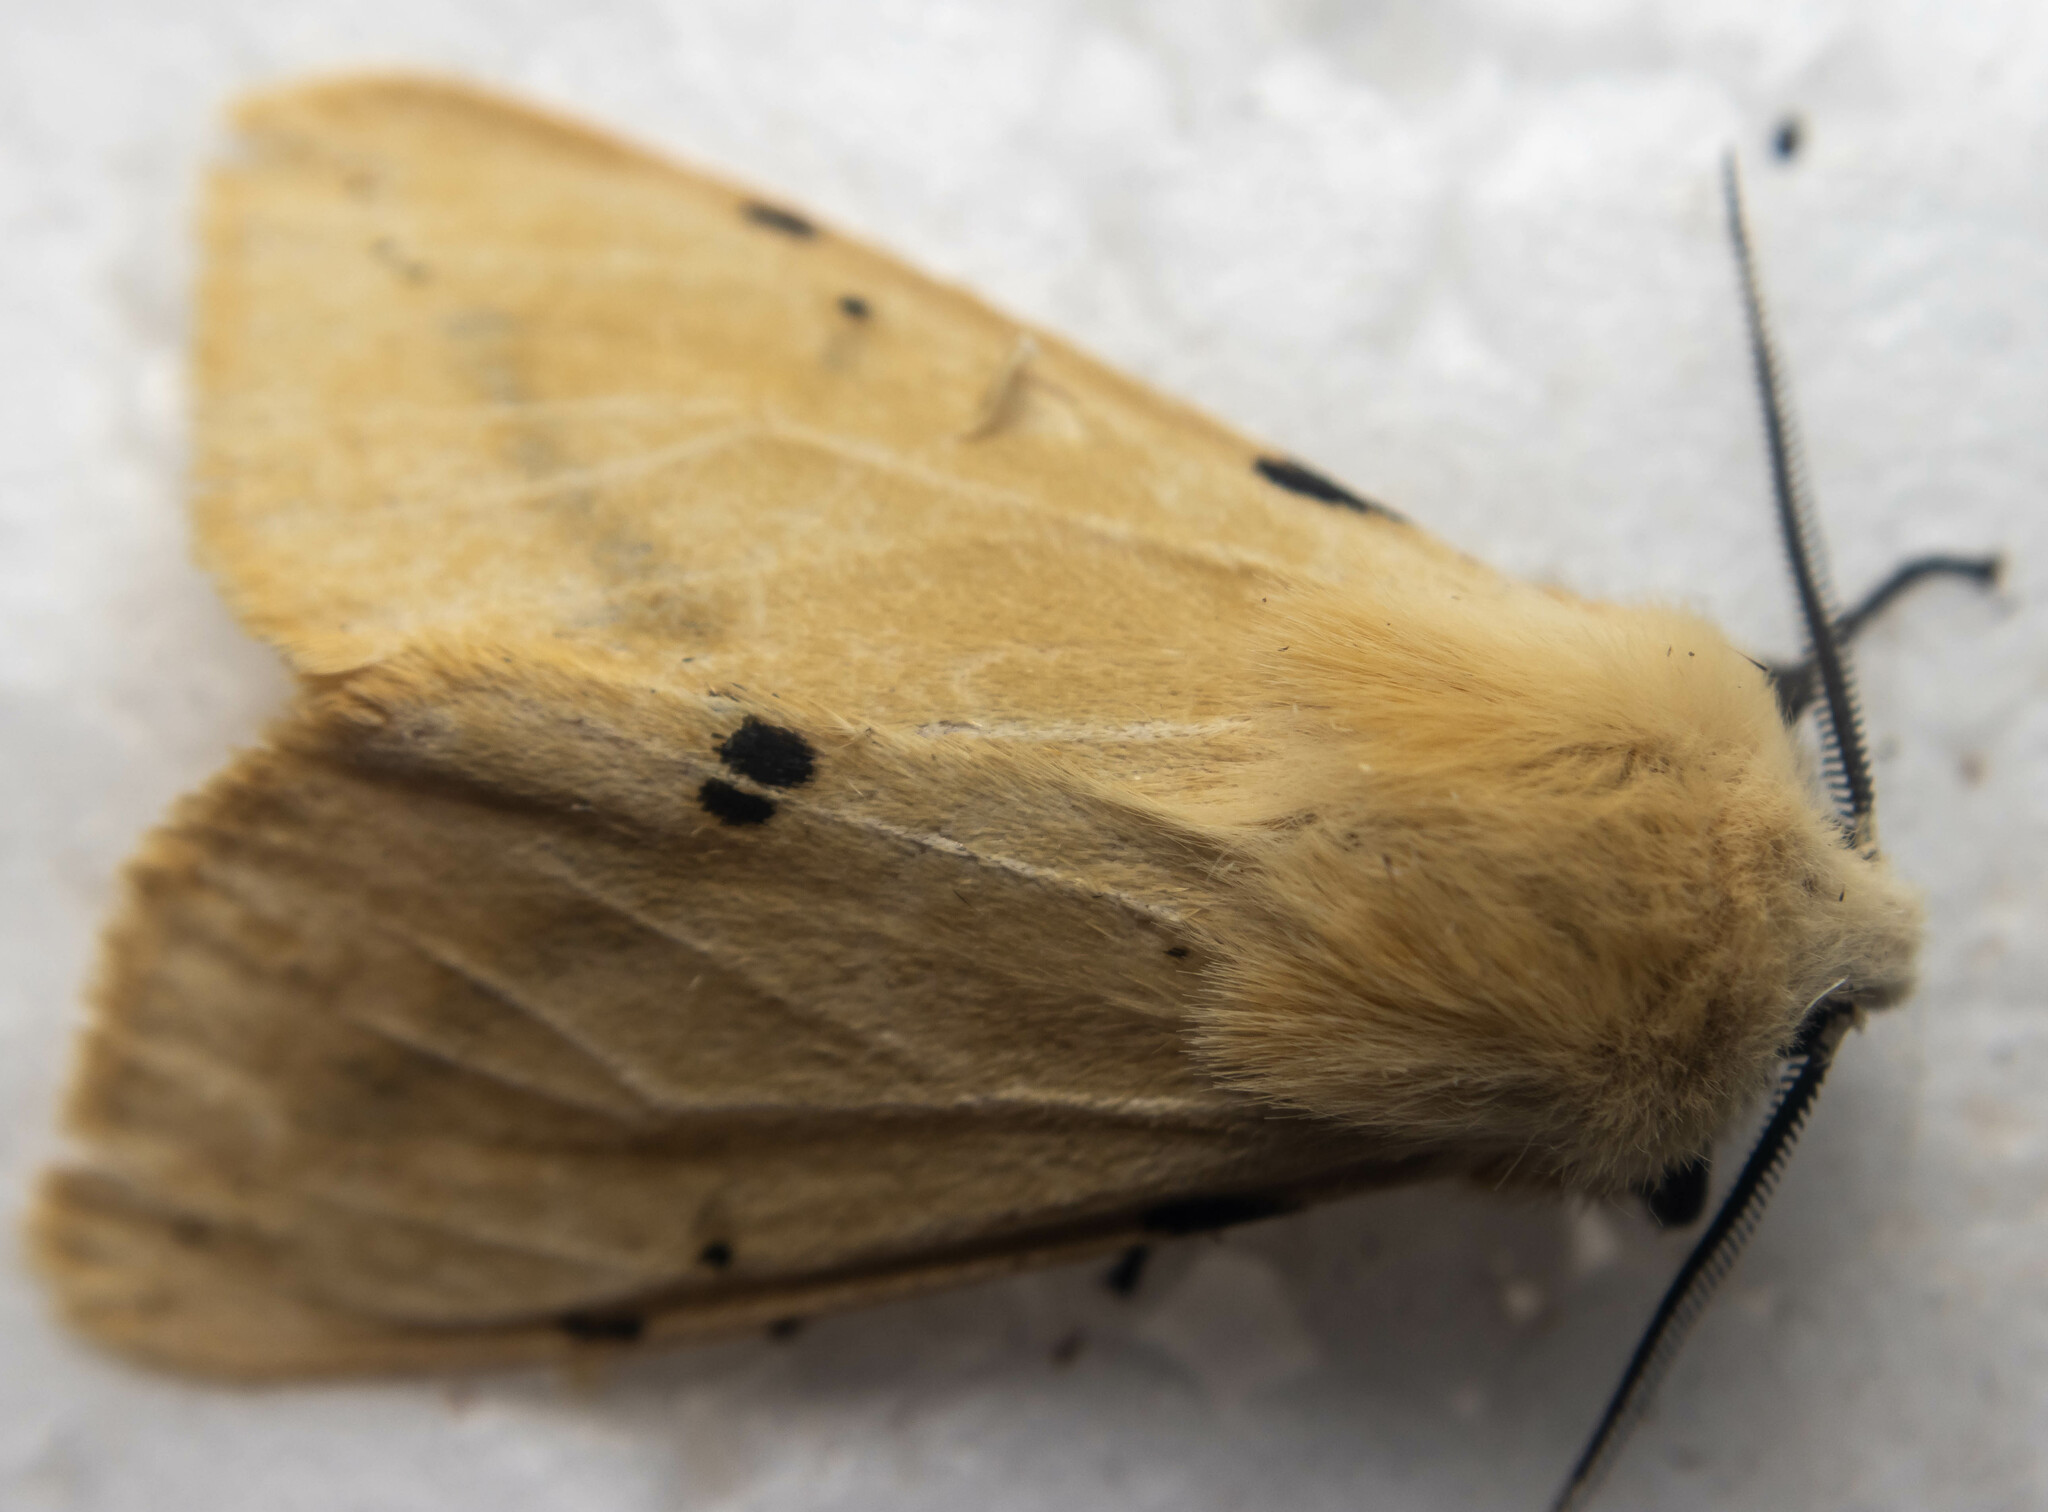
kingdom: Animalia
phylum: Arthropoda
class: Insecta
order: Lepidoptera
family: Erebidae
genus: Spilarctia
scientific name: Spilarctia lutea
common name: Buff ermine
